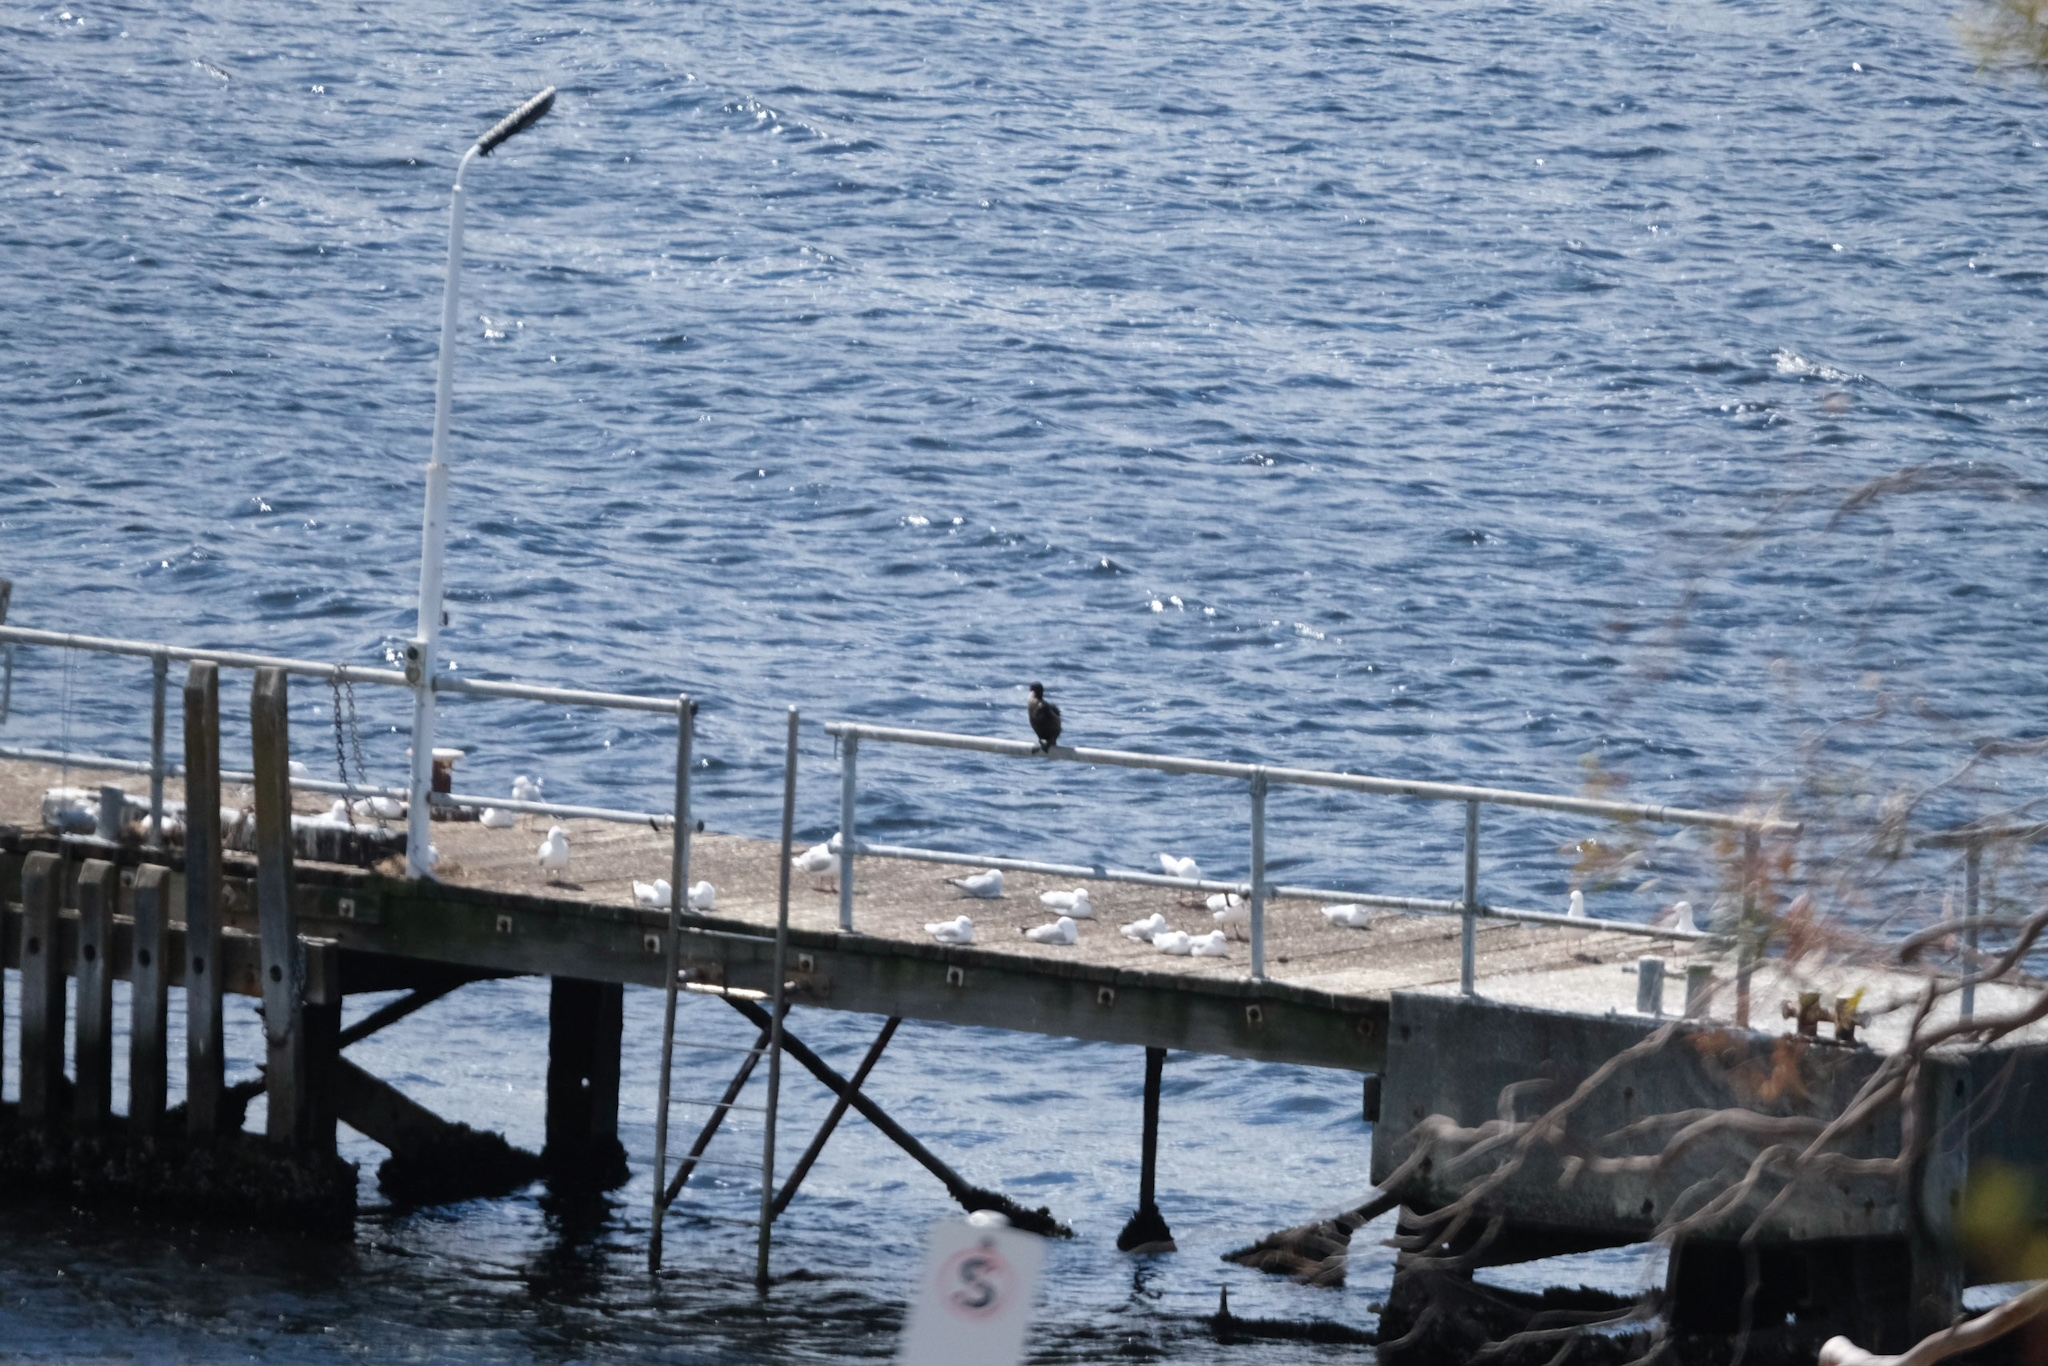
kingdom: Animalia
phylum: Chordata
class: Aves
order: Suliformes
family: Phalacrocoracidae
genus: Phalacrocorax
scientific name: Phalacrocorax sulcirostris
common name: Little black cormorant
